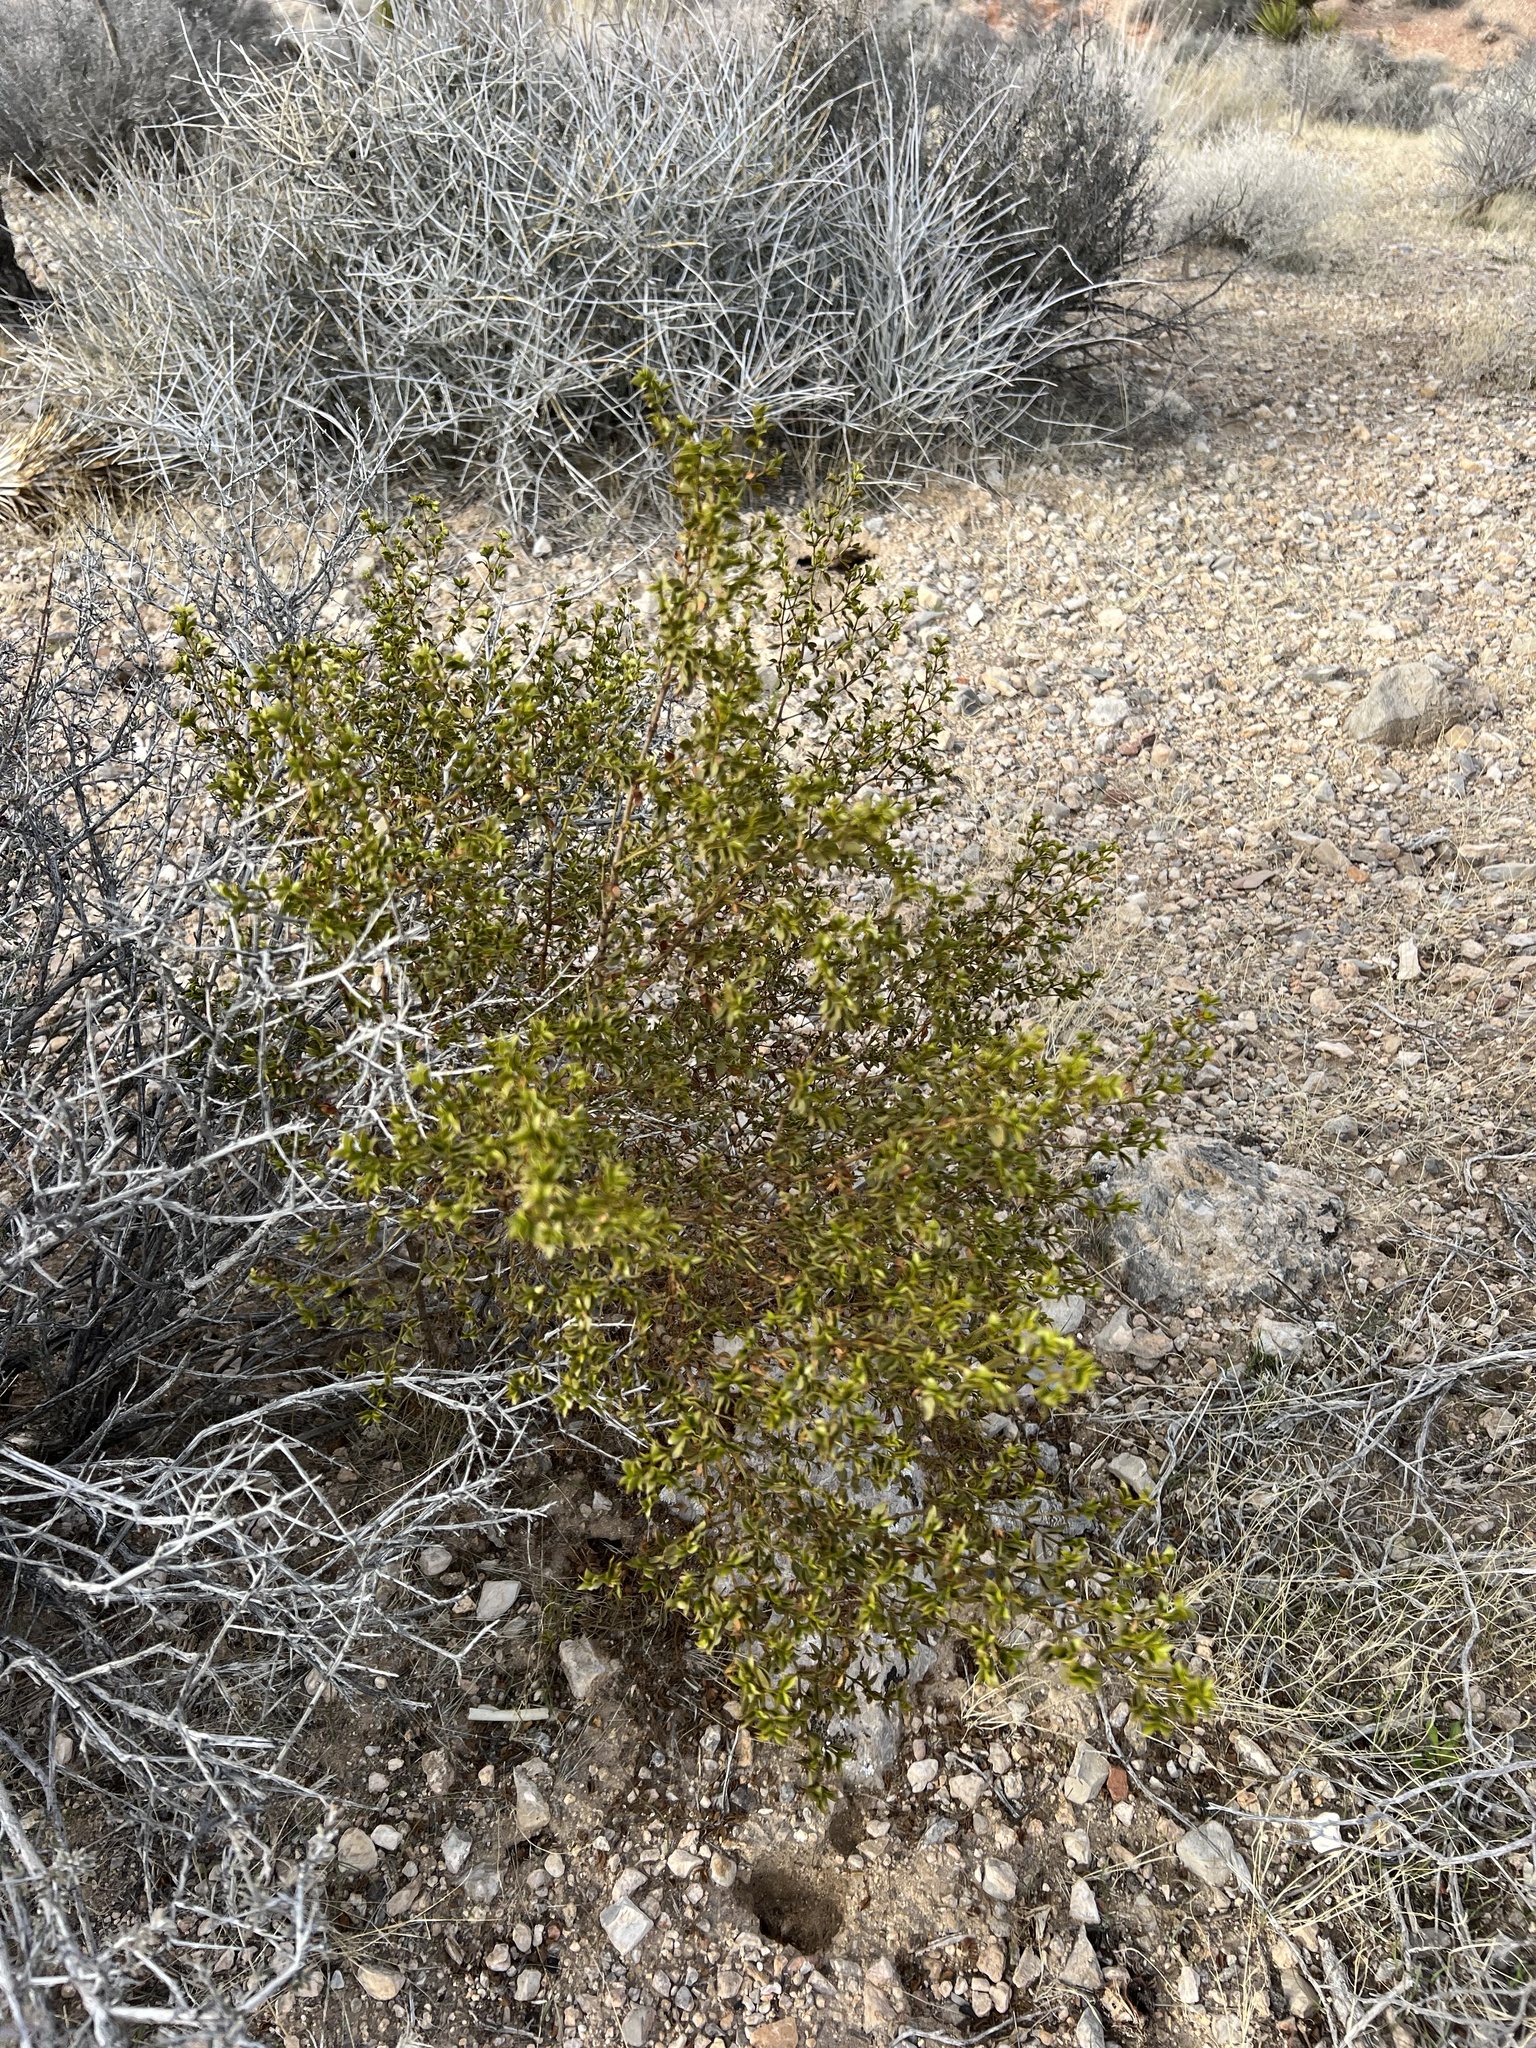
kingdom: Plantae
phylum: Tracheophyta
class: Magnoliopsida
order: Zygophyllales
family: Zygophyllaceae
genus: Larrea
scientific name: Larrea tridentata
